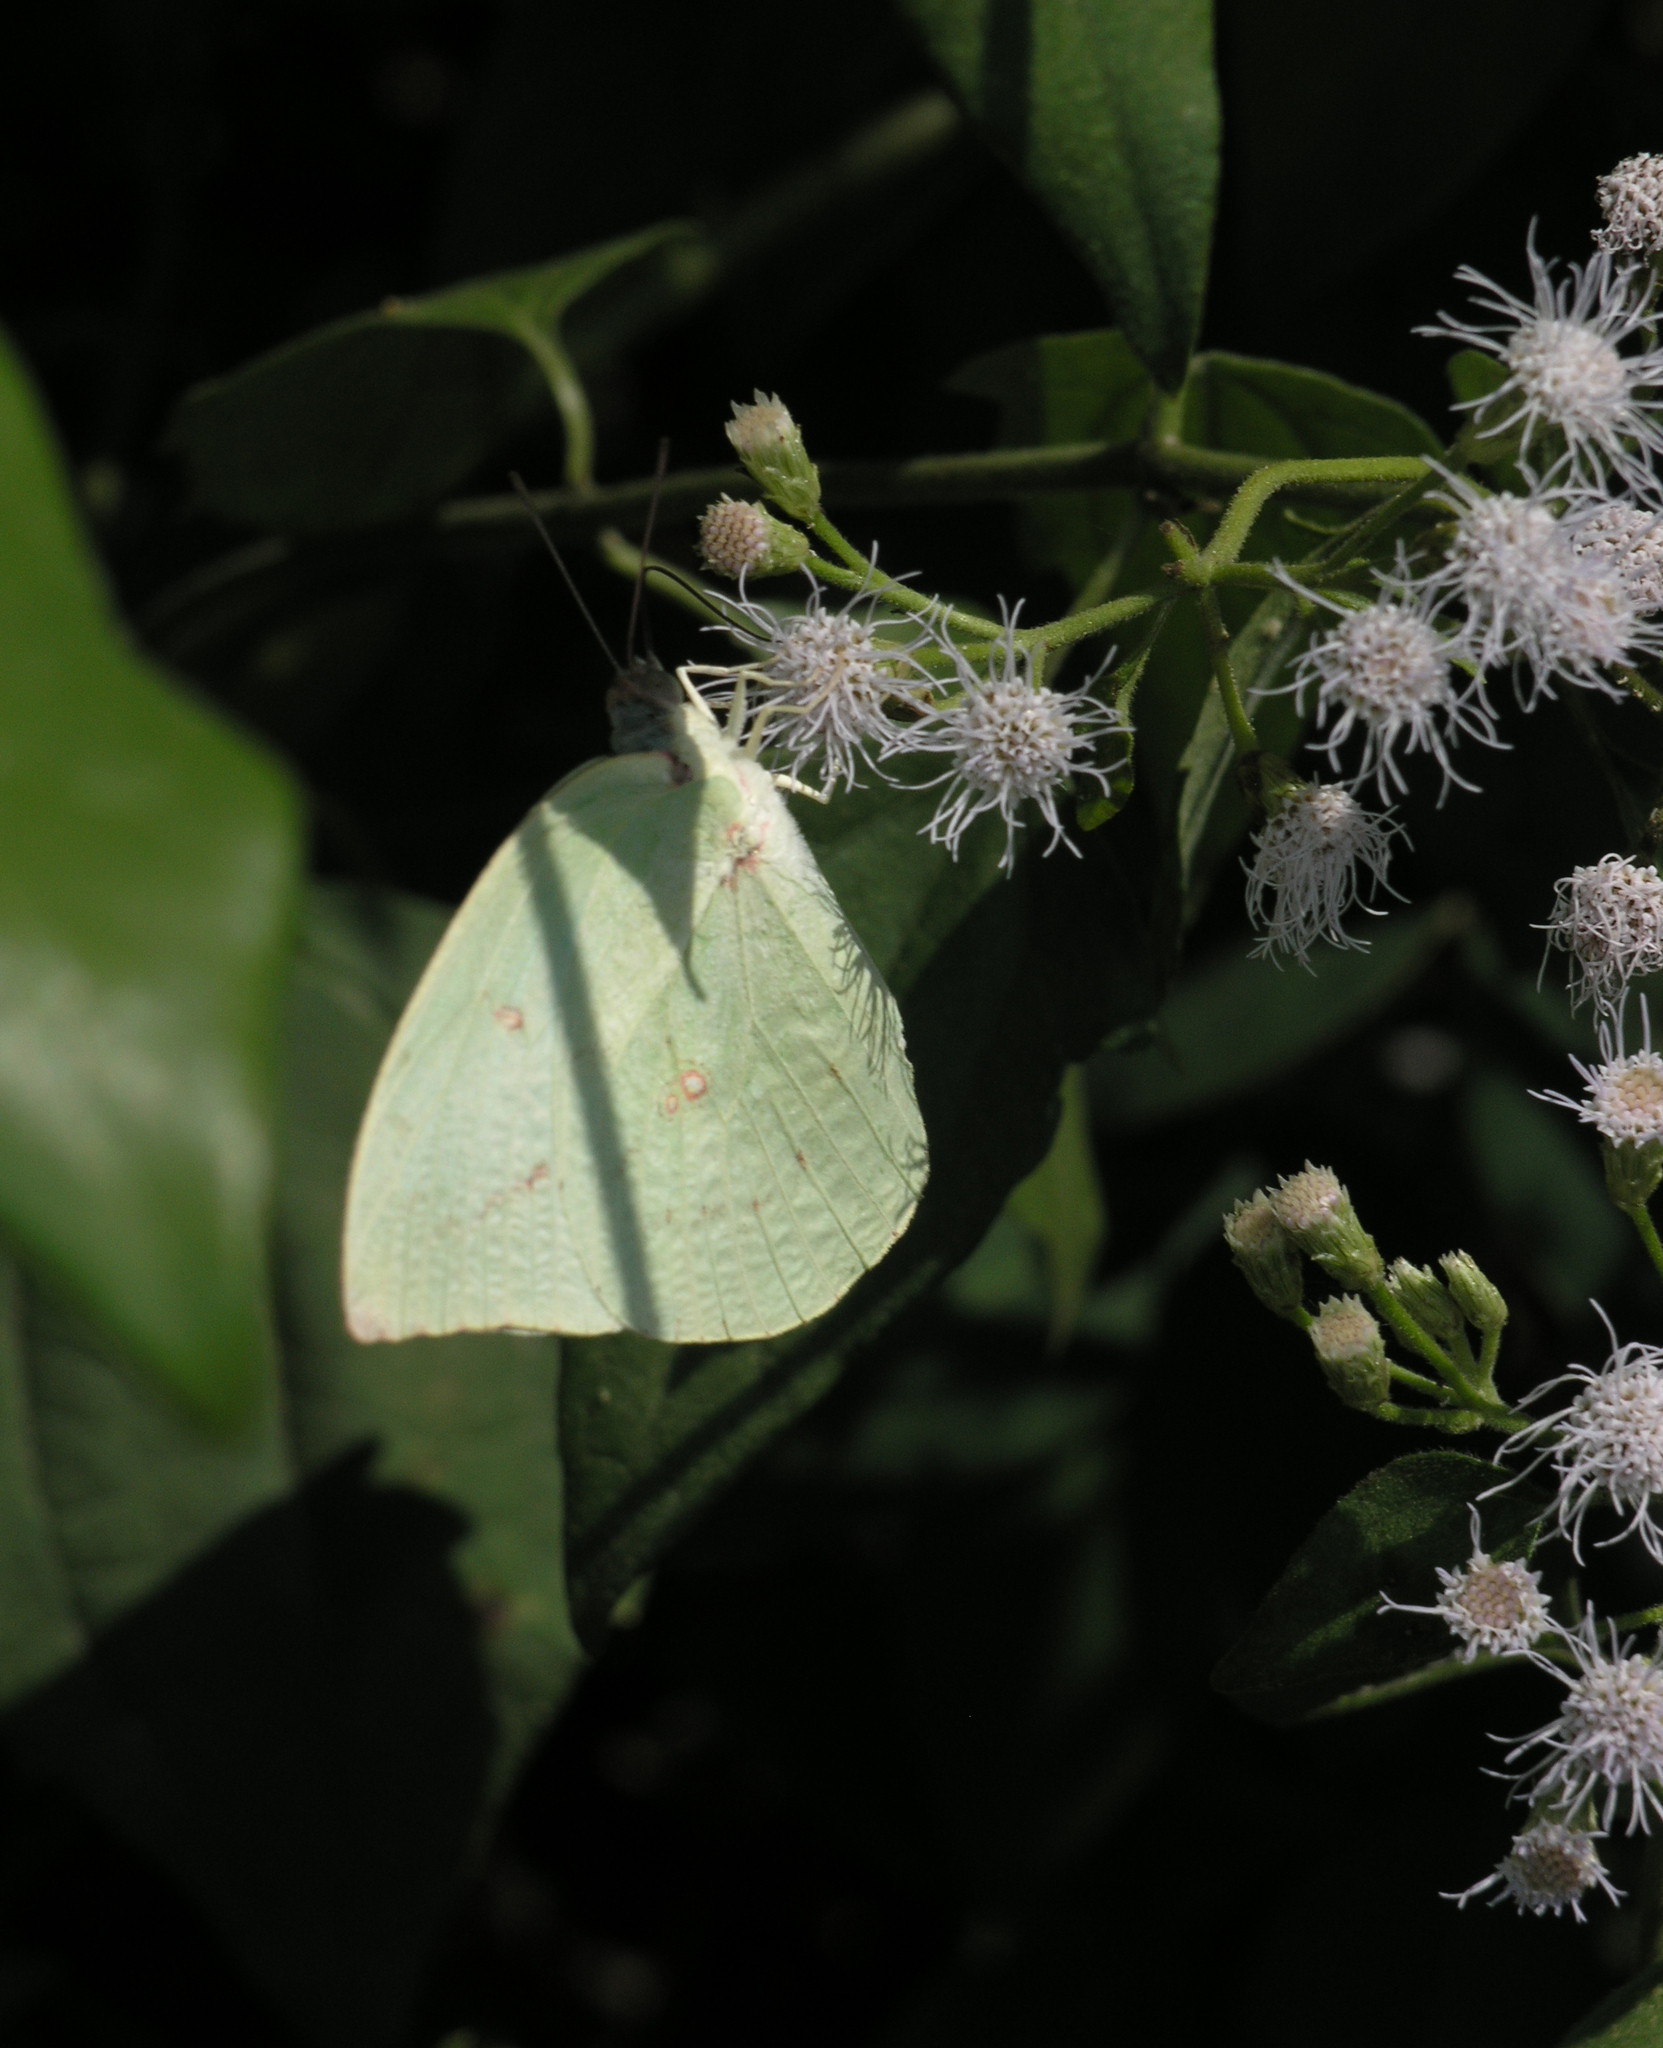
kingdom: Animalia
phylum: Arthropoda
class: Insecta
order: Lepidoptera
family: Pieridae
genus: Catopsilia
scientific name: Catopsilia pomona
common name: Common emigrant
